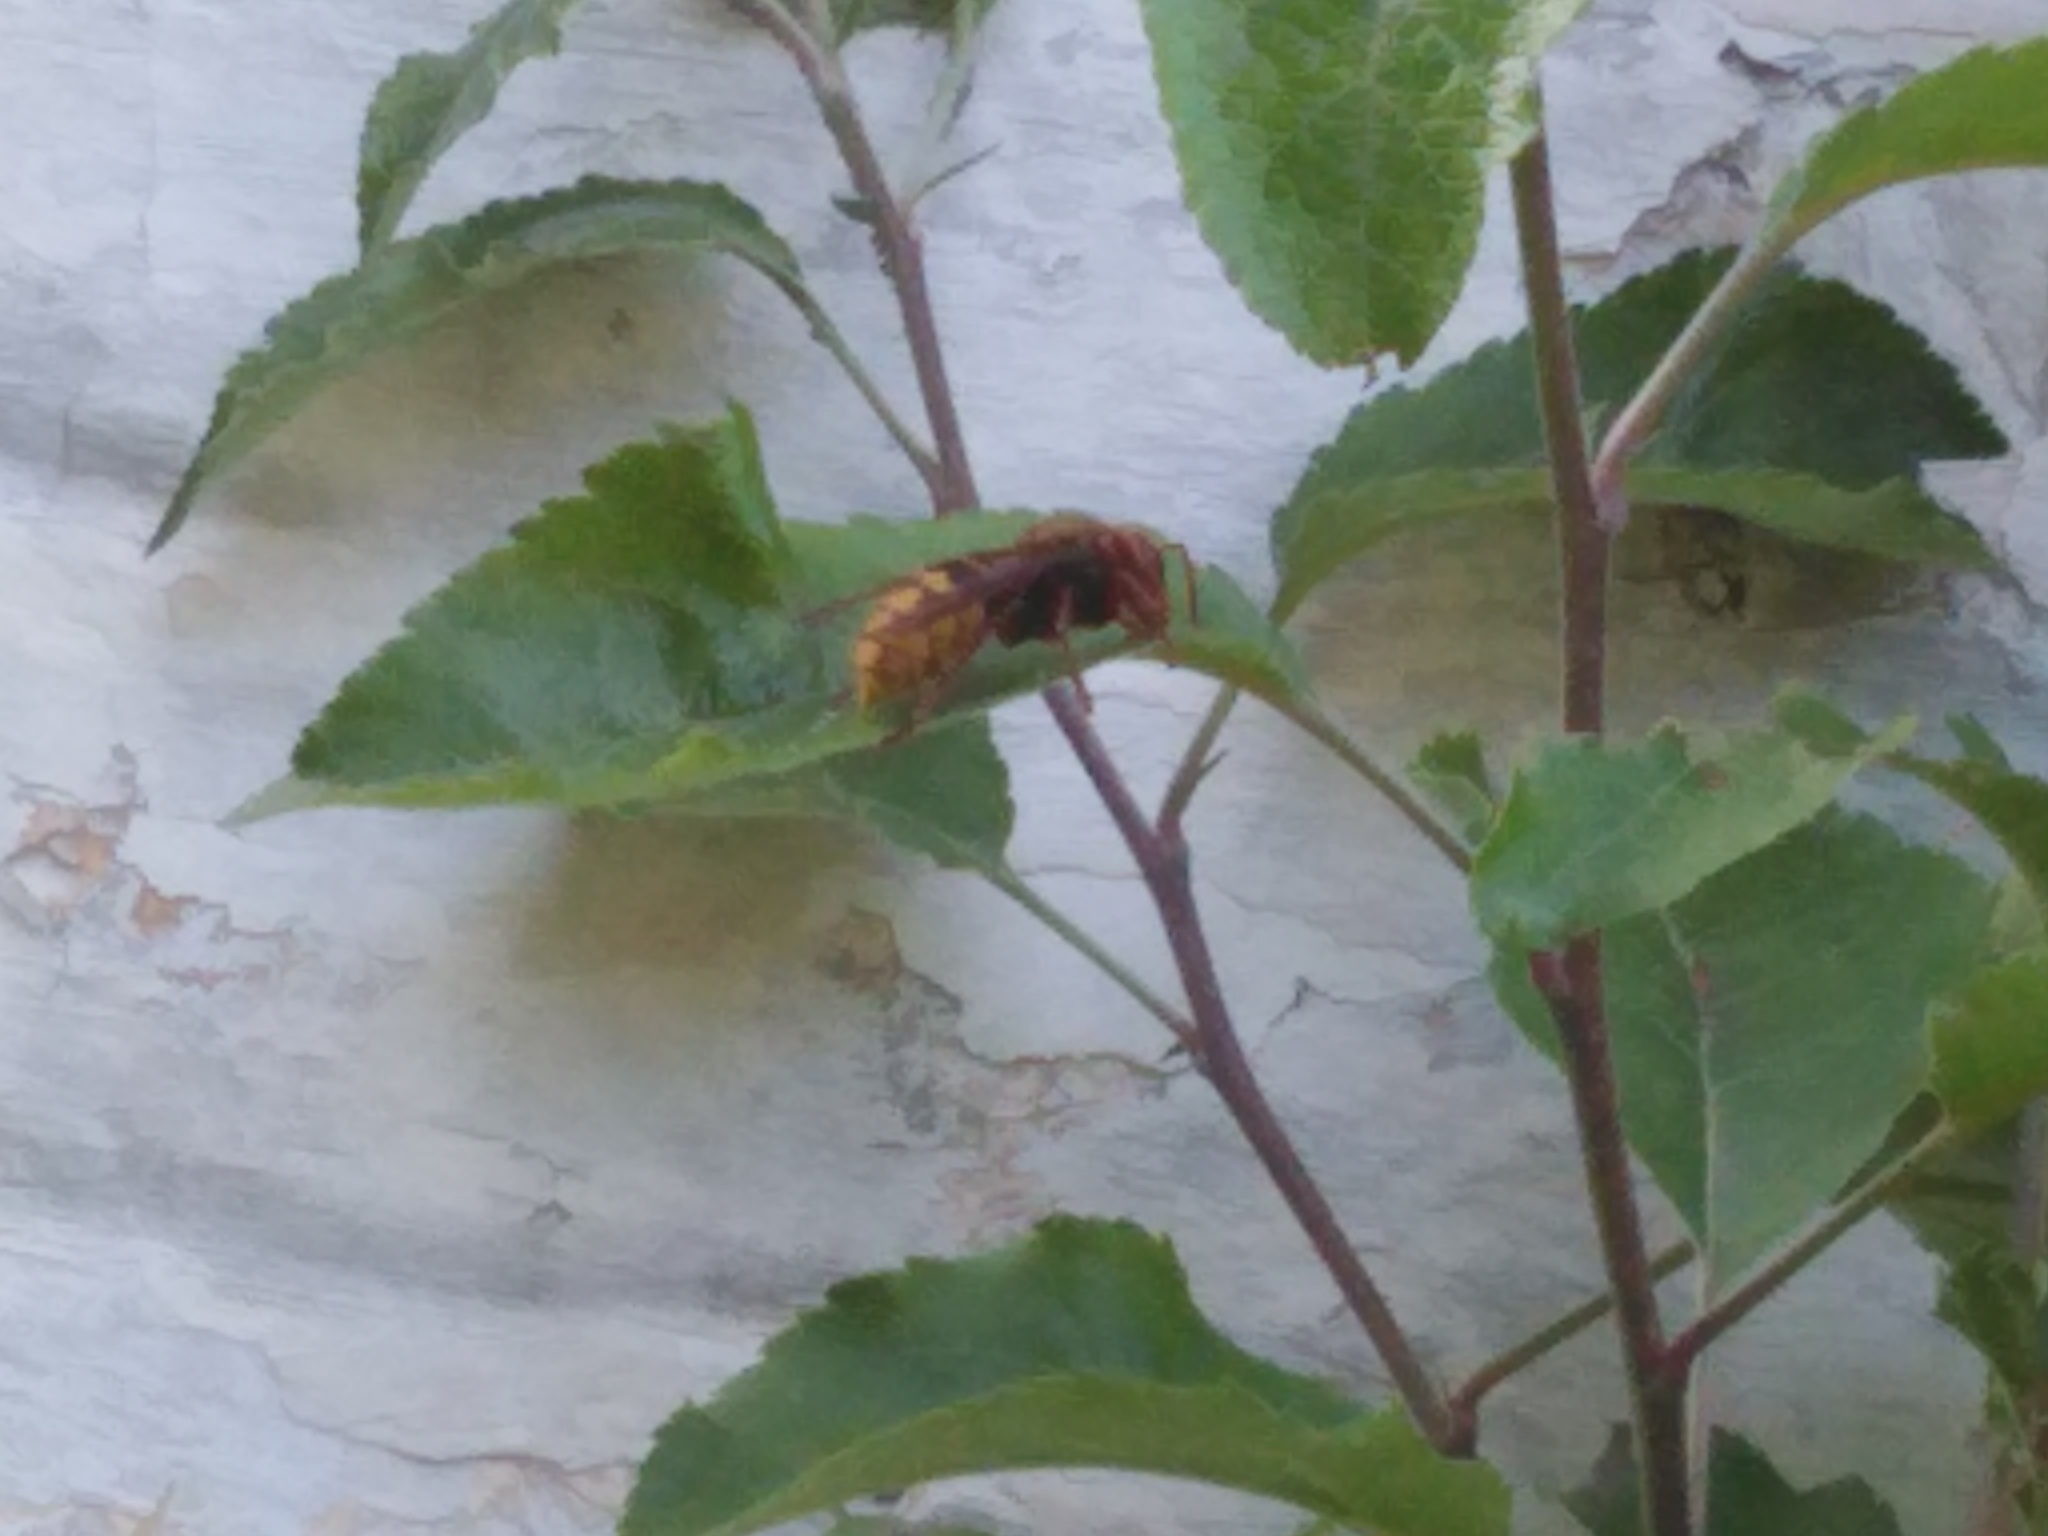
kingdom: Animalia
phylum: Arthropoda
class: Insecta
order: Hymenoptera
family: Vespidae
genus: Vespa
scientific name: Vespa crabro
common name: Hornet
